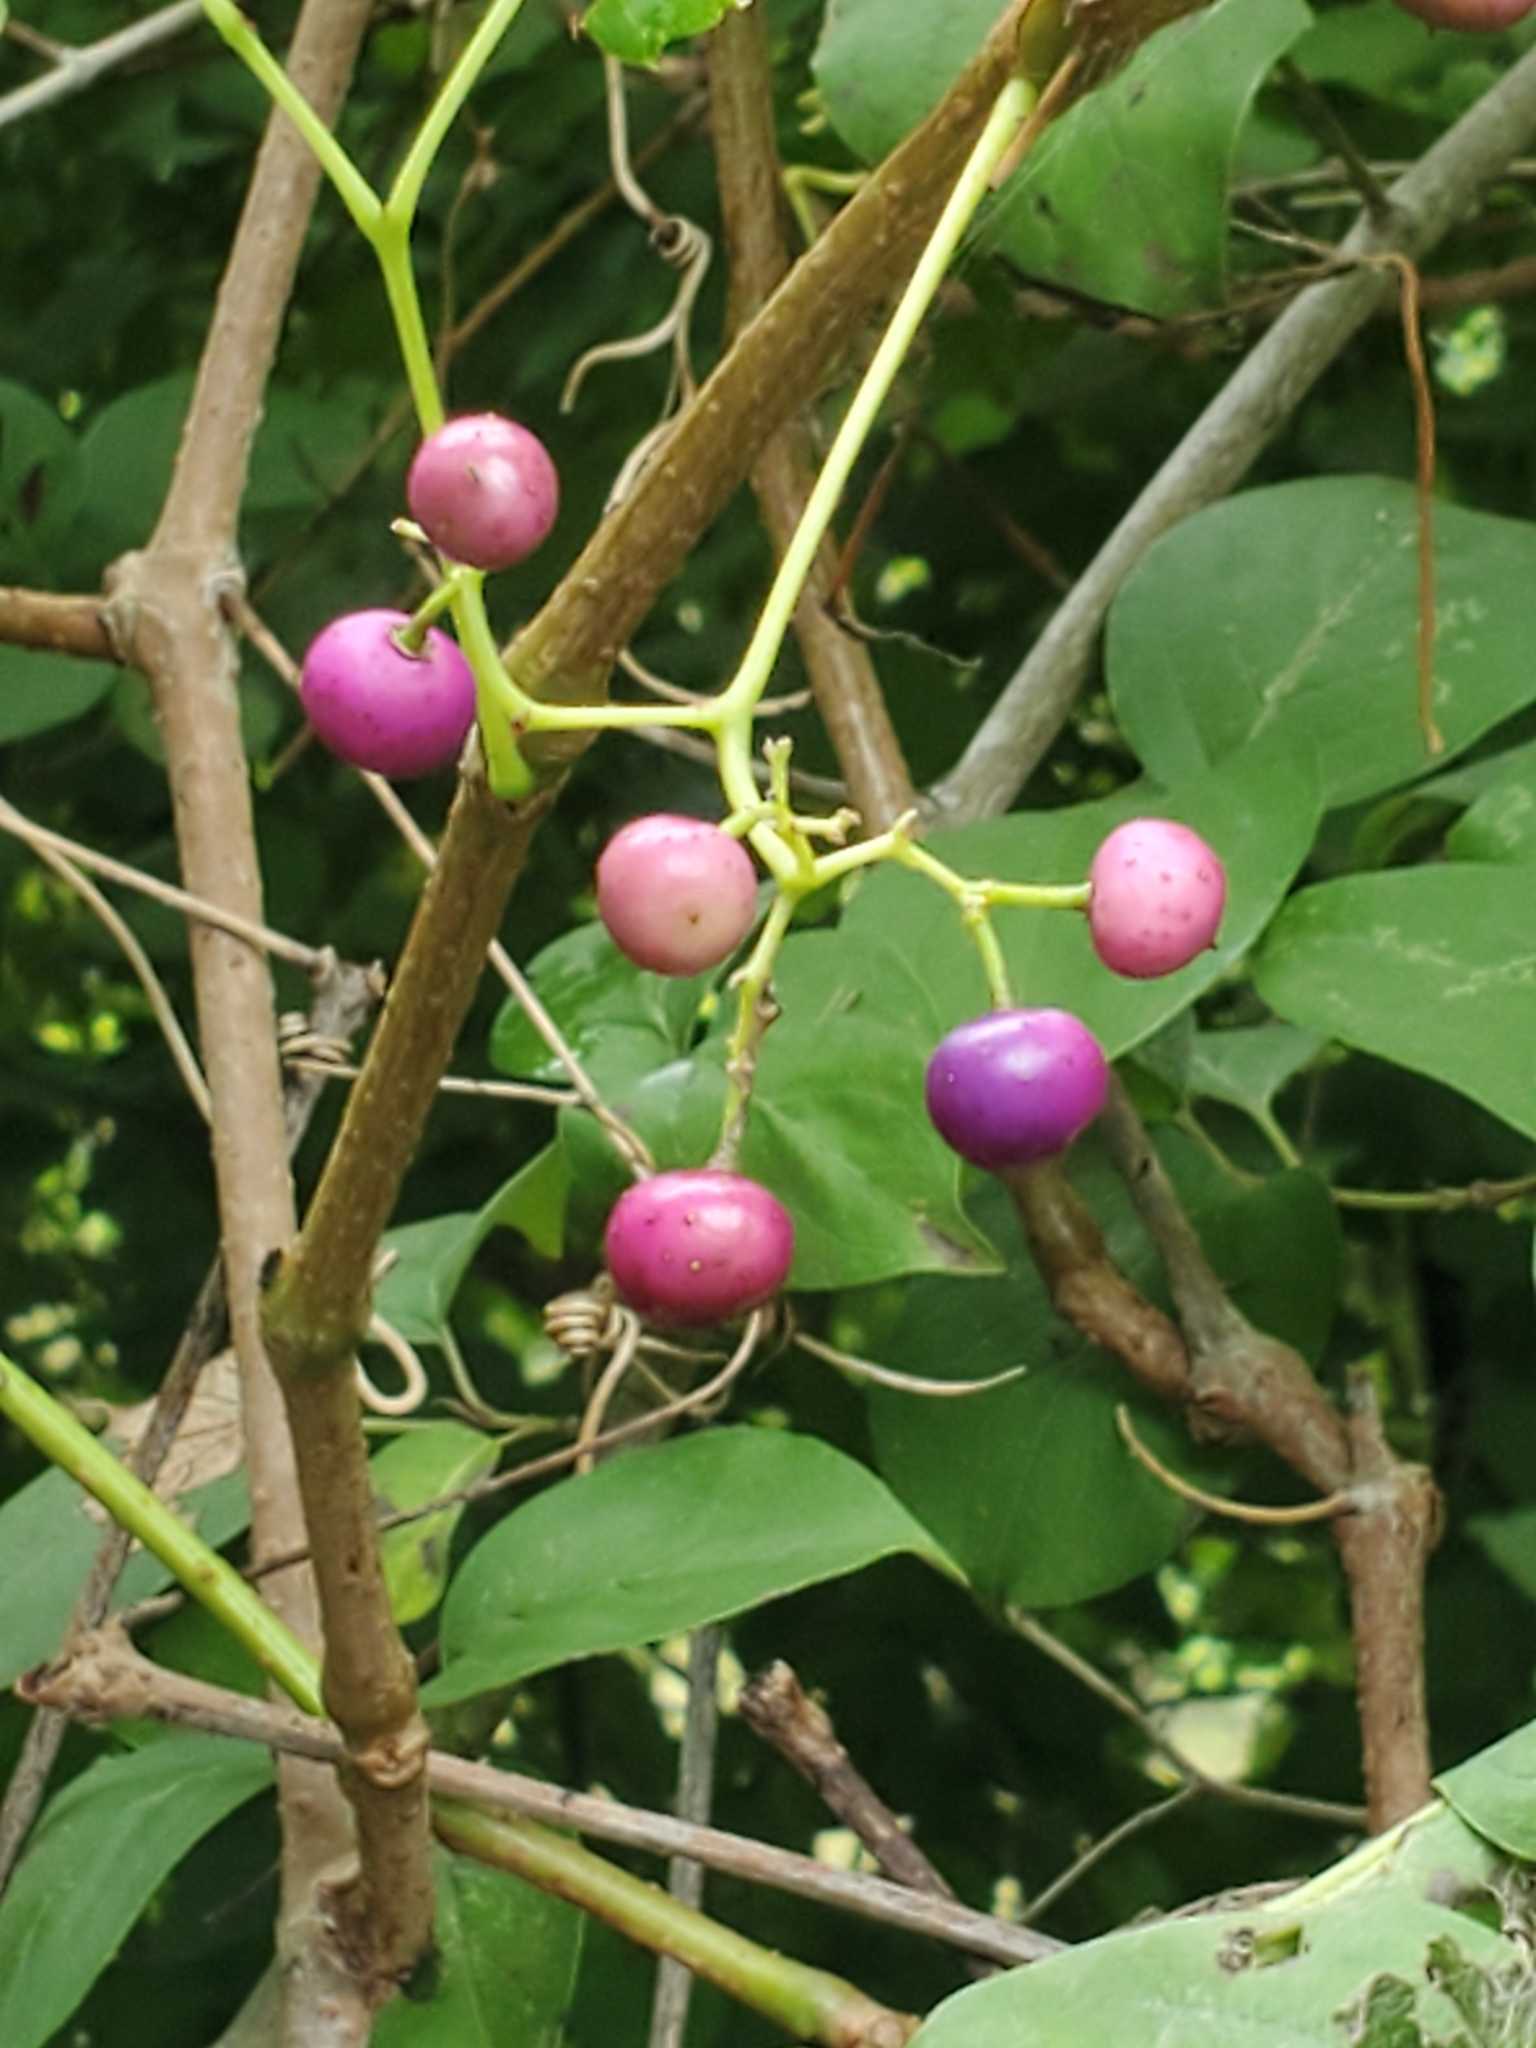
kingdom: Plantae
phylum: Tracheophyta
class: Magnoliopsida
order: Vitales
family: Vitaceae
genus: Ampelopsis
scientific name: Ampelopsis cordata
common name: Heart-leaf ampelopsis
